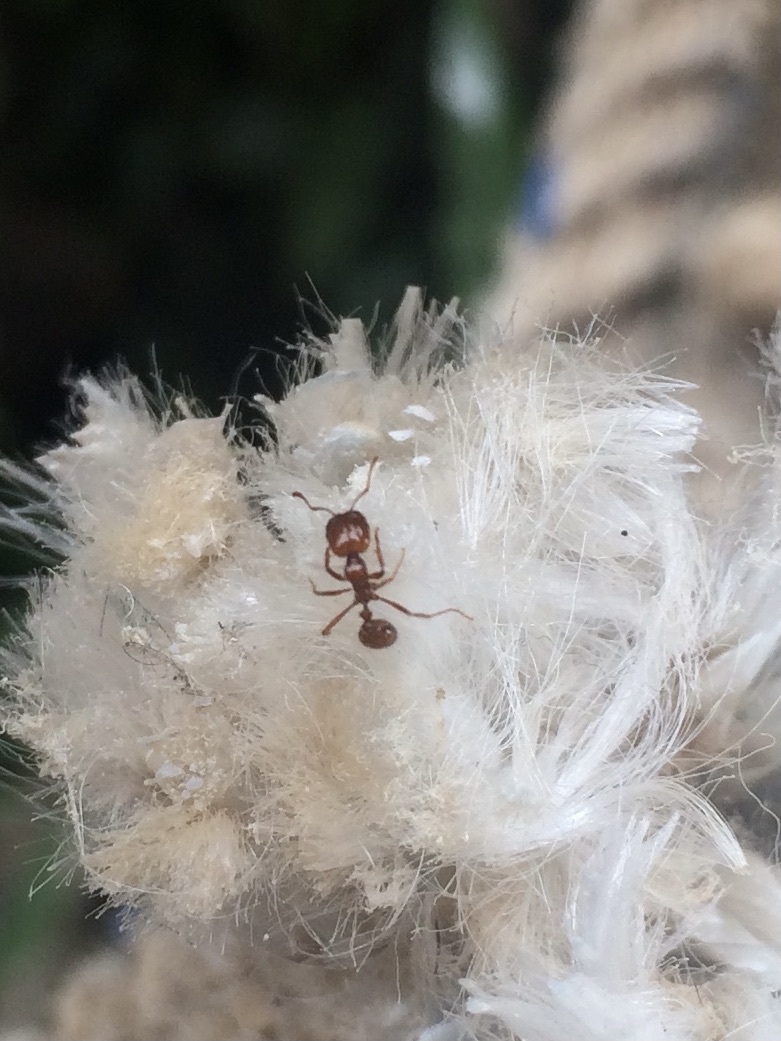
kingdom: Animalia
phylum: Arthropoda
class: Insecta
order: Hymenoptera
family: Formicidae
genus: Solenopsis
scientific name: Solenopsis geminata
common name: Tropical fire ant
